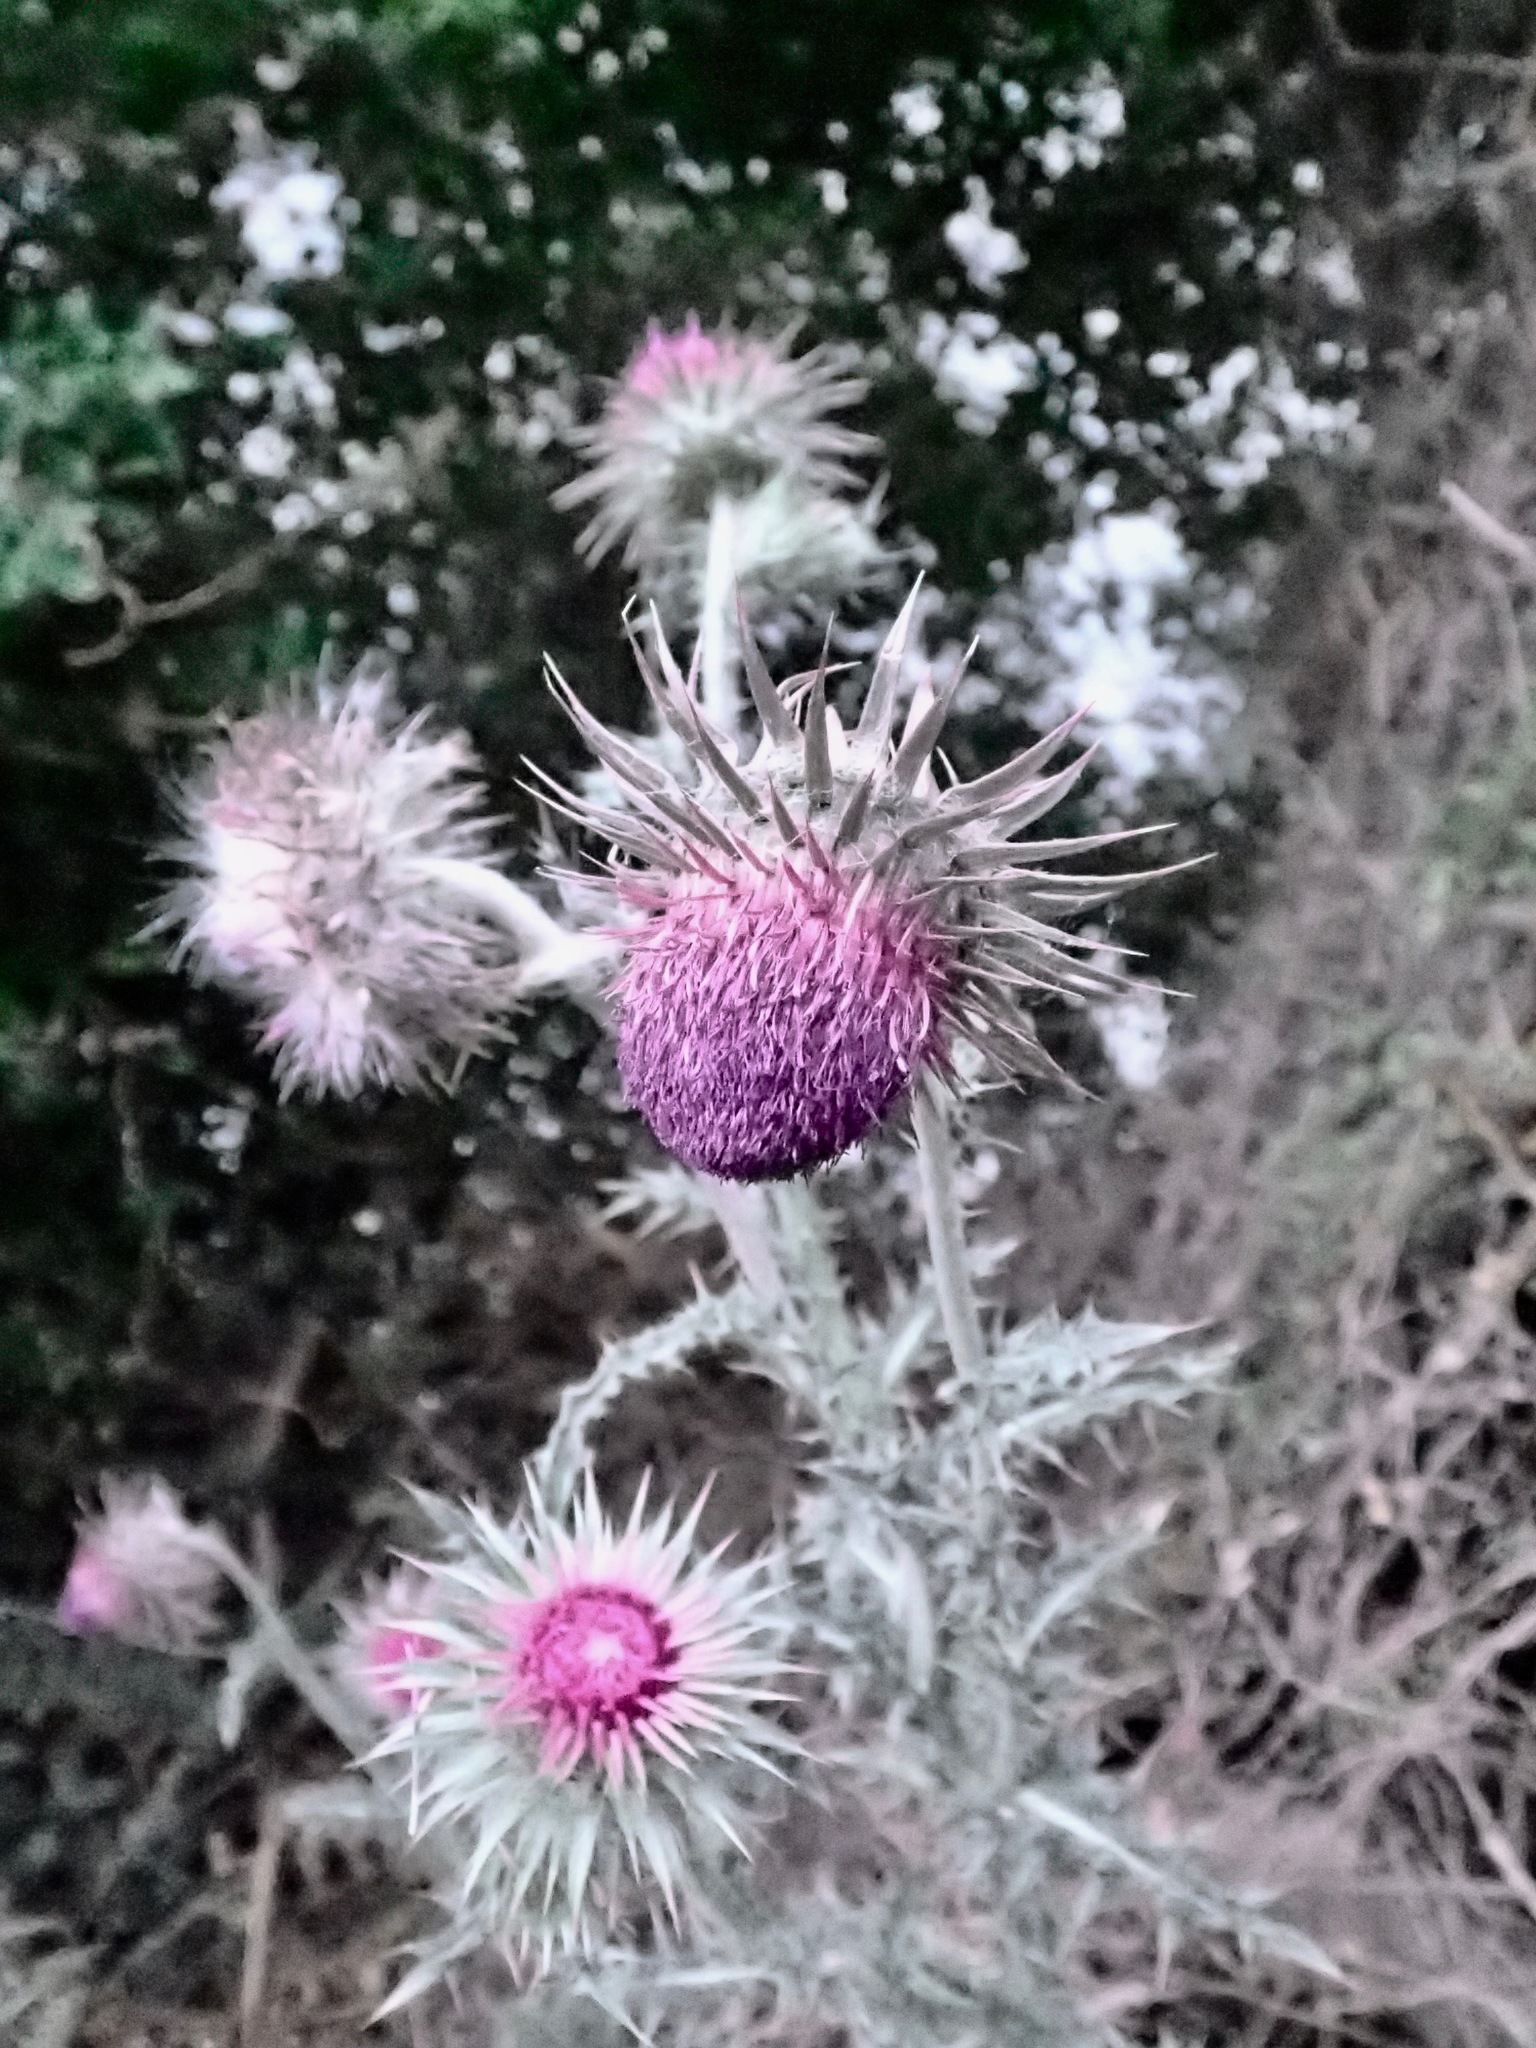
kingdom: Plantae
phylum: Tracheophyta
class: Magnoliopsida
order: Asterales
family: Asteraceae
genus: Carduus
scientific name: Carduus nutans
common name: Musk thistle
